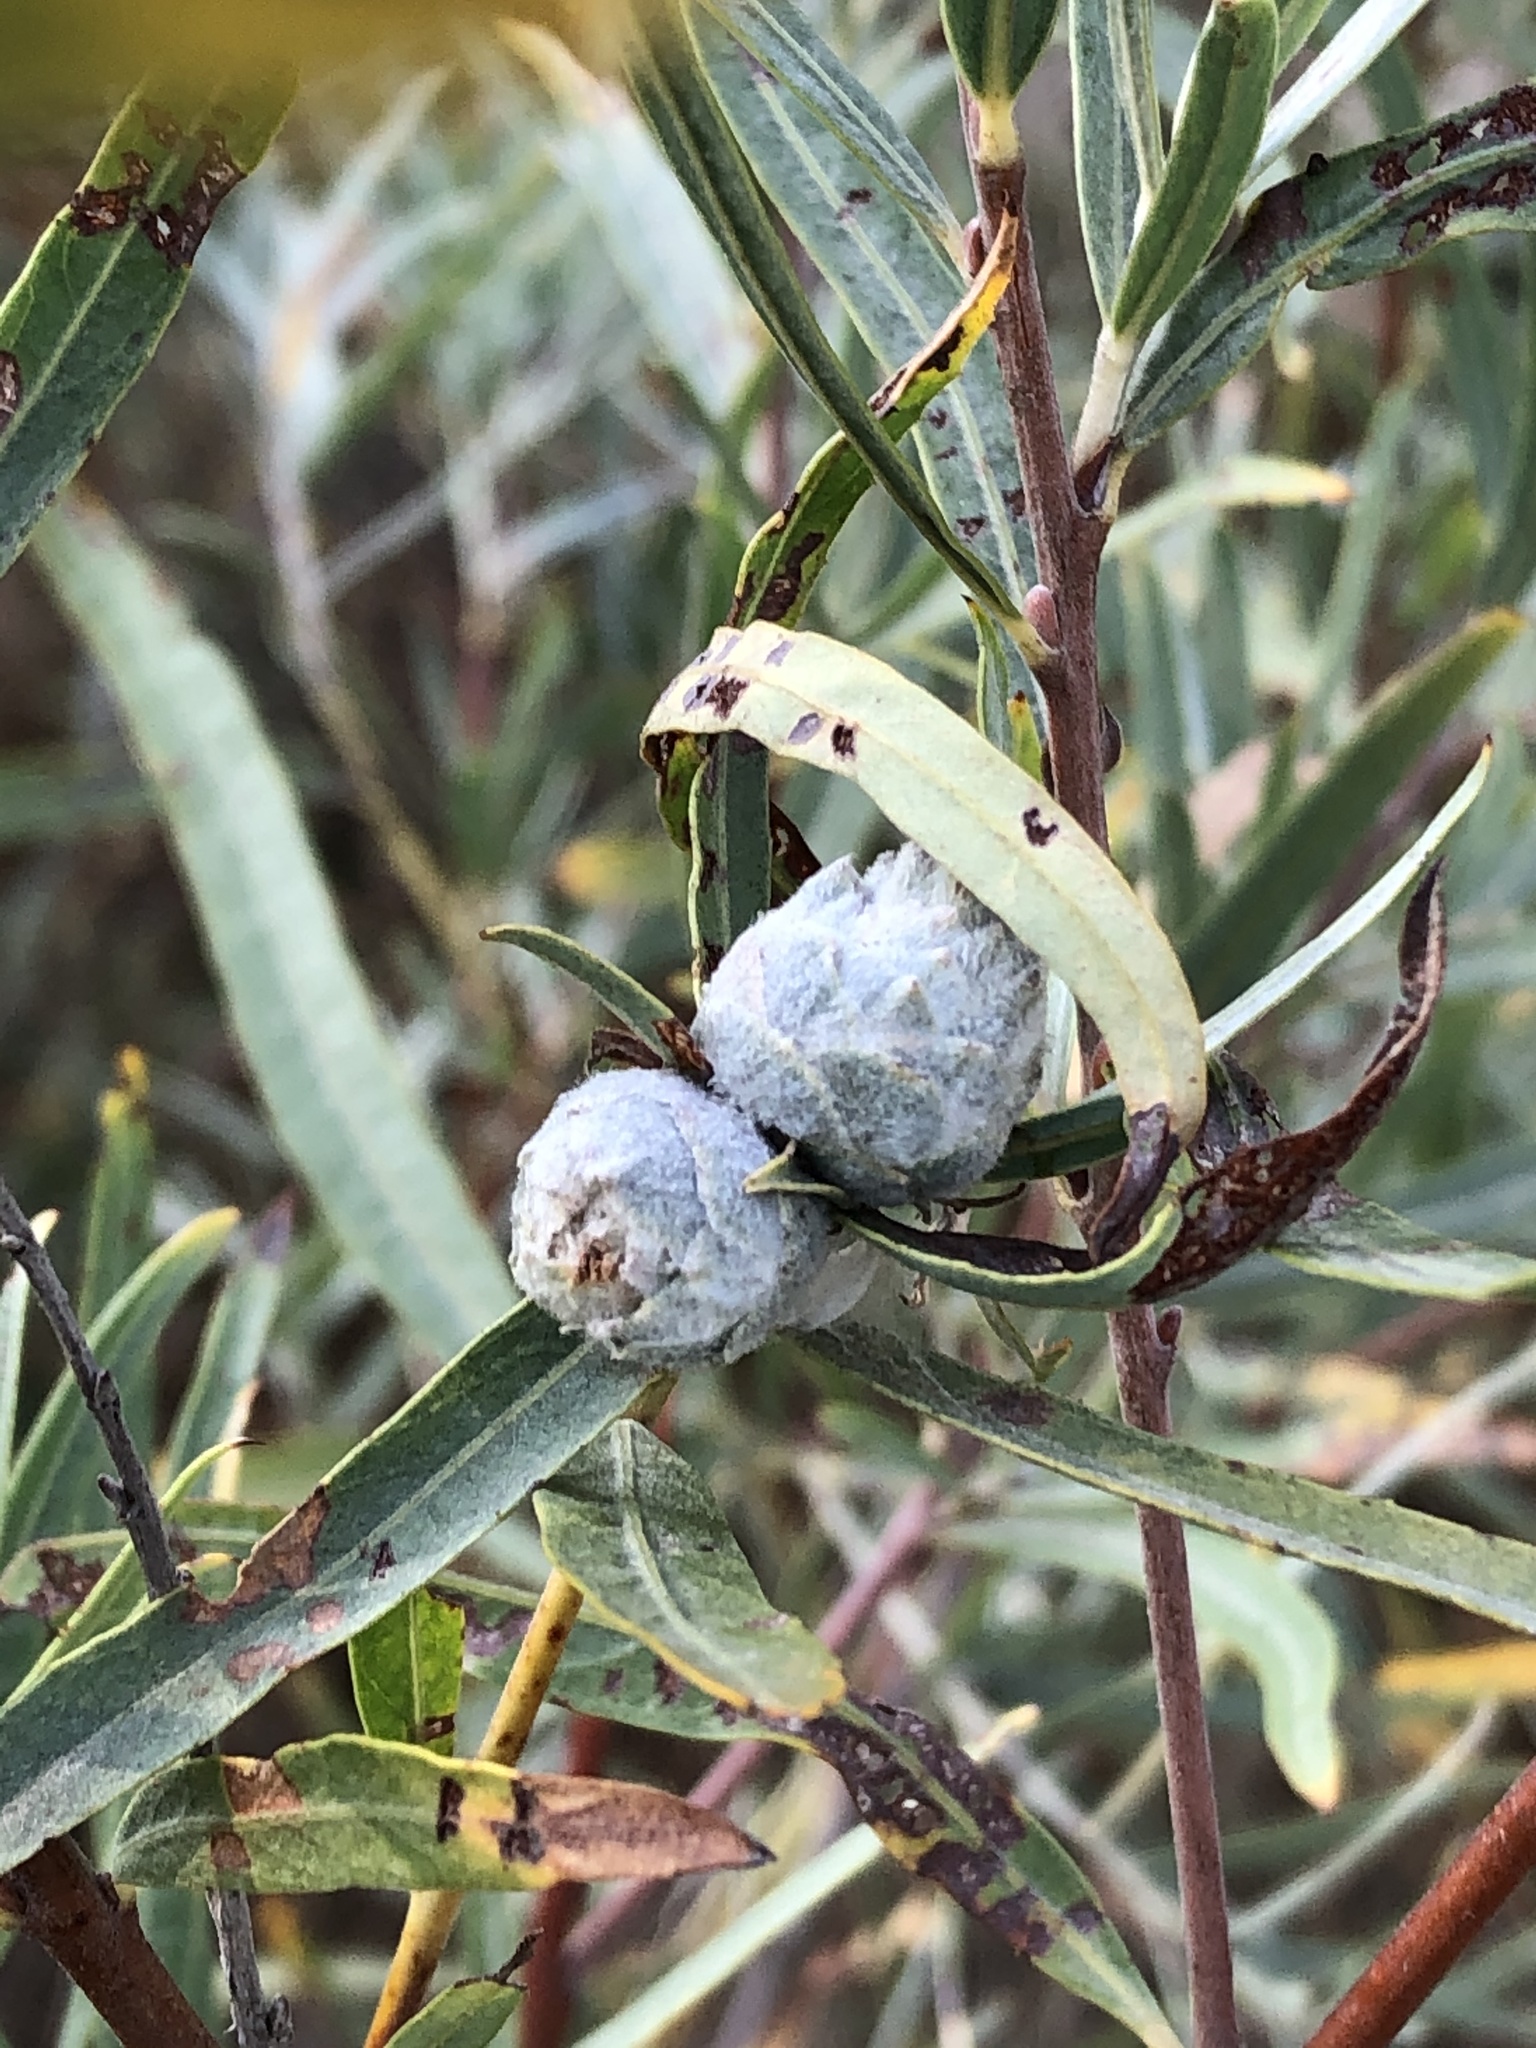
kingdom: Animalia
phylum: Arthropoda
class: Insecta
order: Diptera
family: Cecidomyiidae
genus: Rabdophaga
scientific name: Rabdophaga strobiloides
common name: Willow pinecone gall midge
